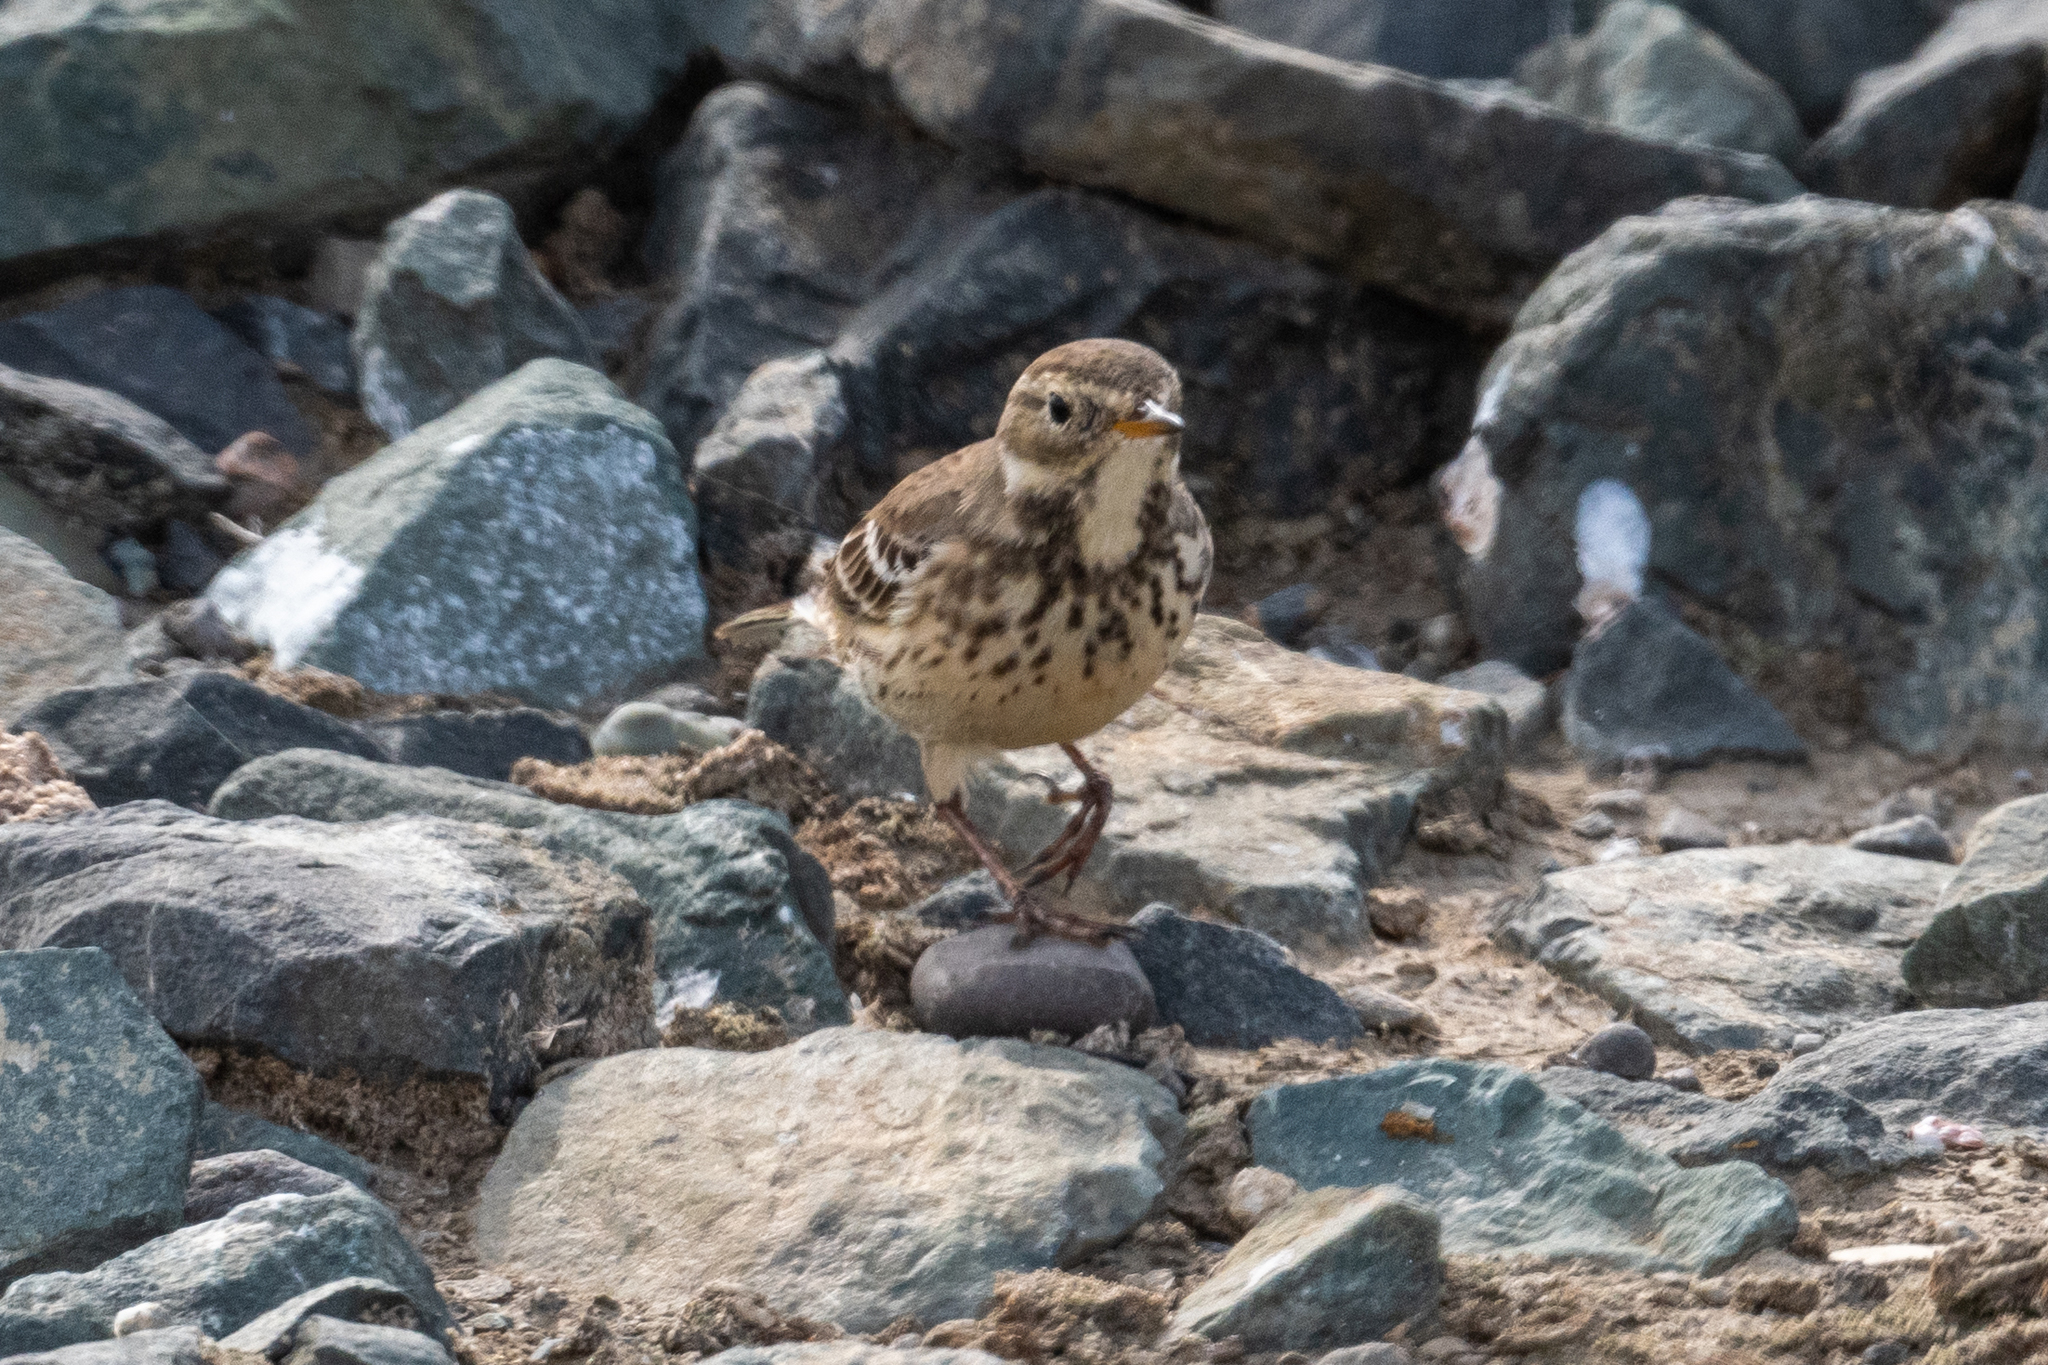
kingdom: Animalia
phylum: Chordata
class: Aves
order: Passeriformes
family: Motacillidae
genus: Anthus
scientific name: Anthus rubescens
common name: Buff-bellied pipit
